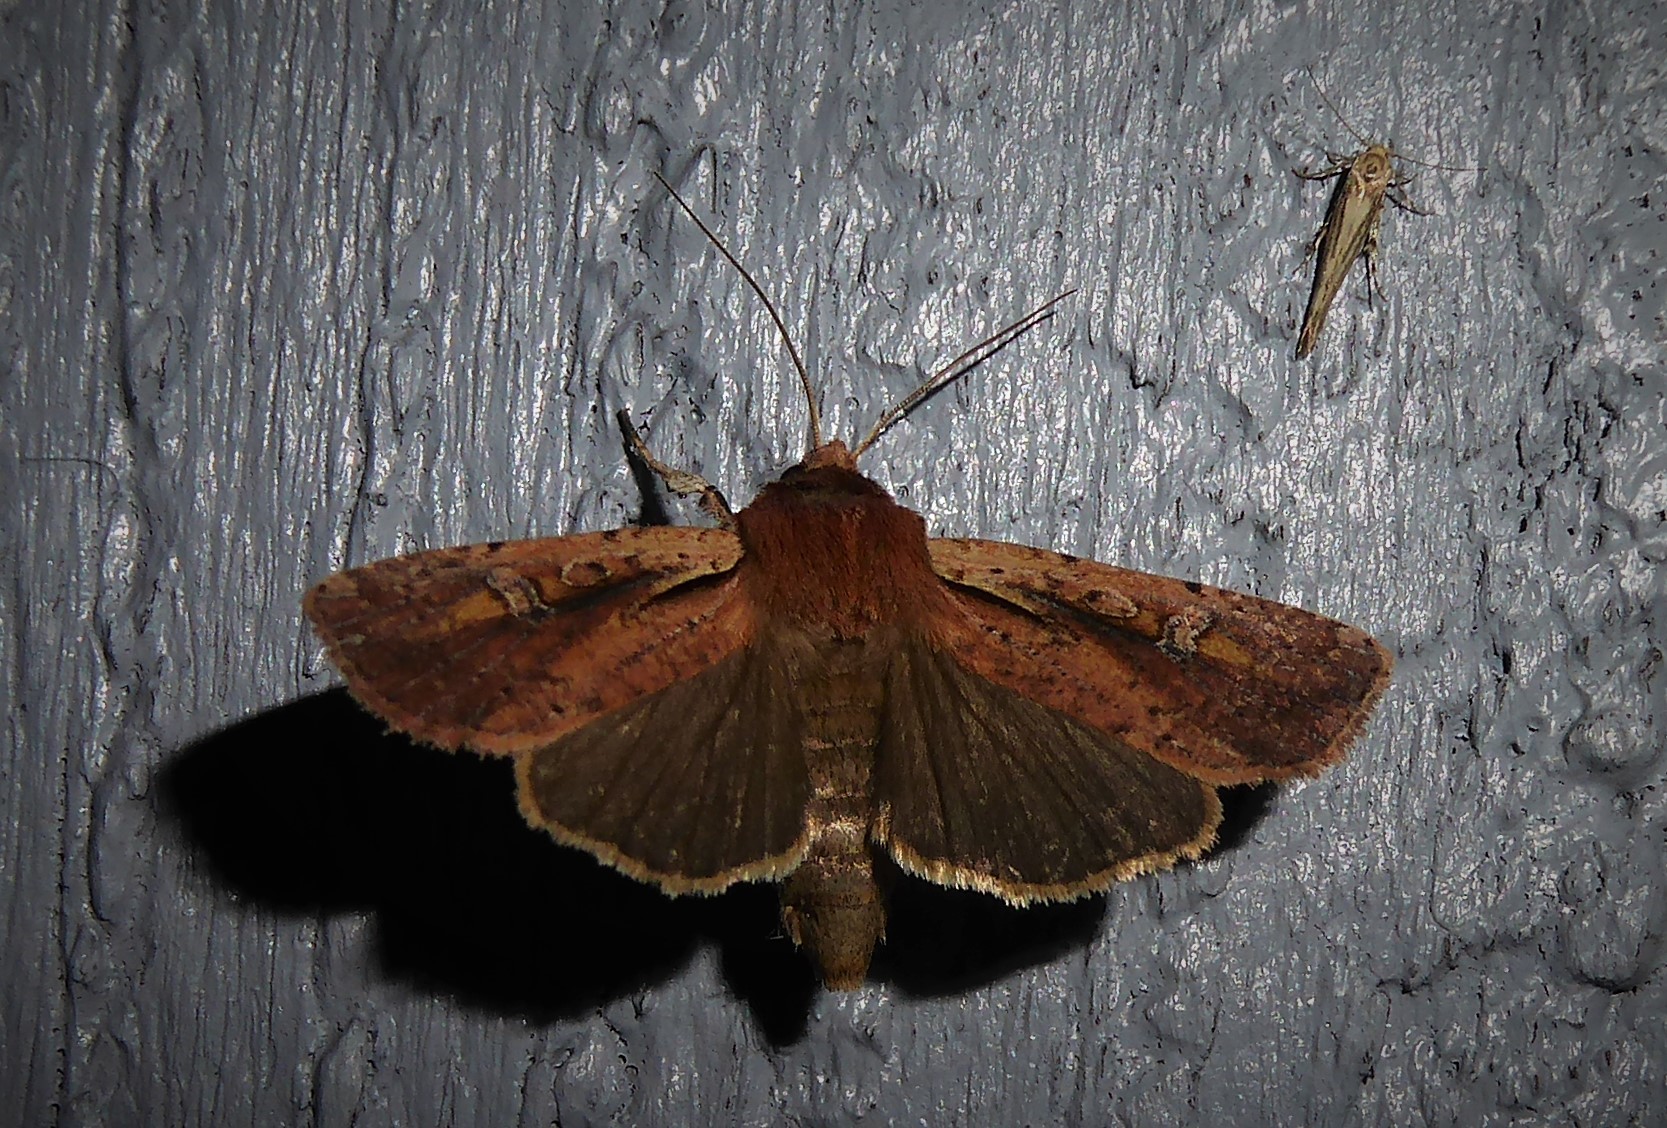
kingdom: Animalia
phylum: Arthropoda
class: Insecta
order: Lepidoptera
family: Noctuidae
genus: Ichneutica
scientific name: Ichneutica atristriga
